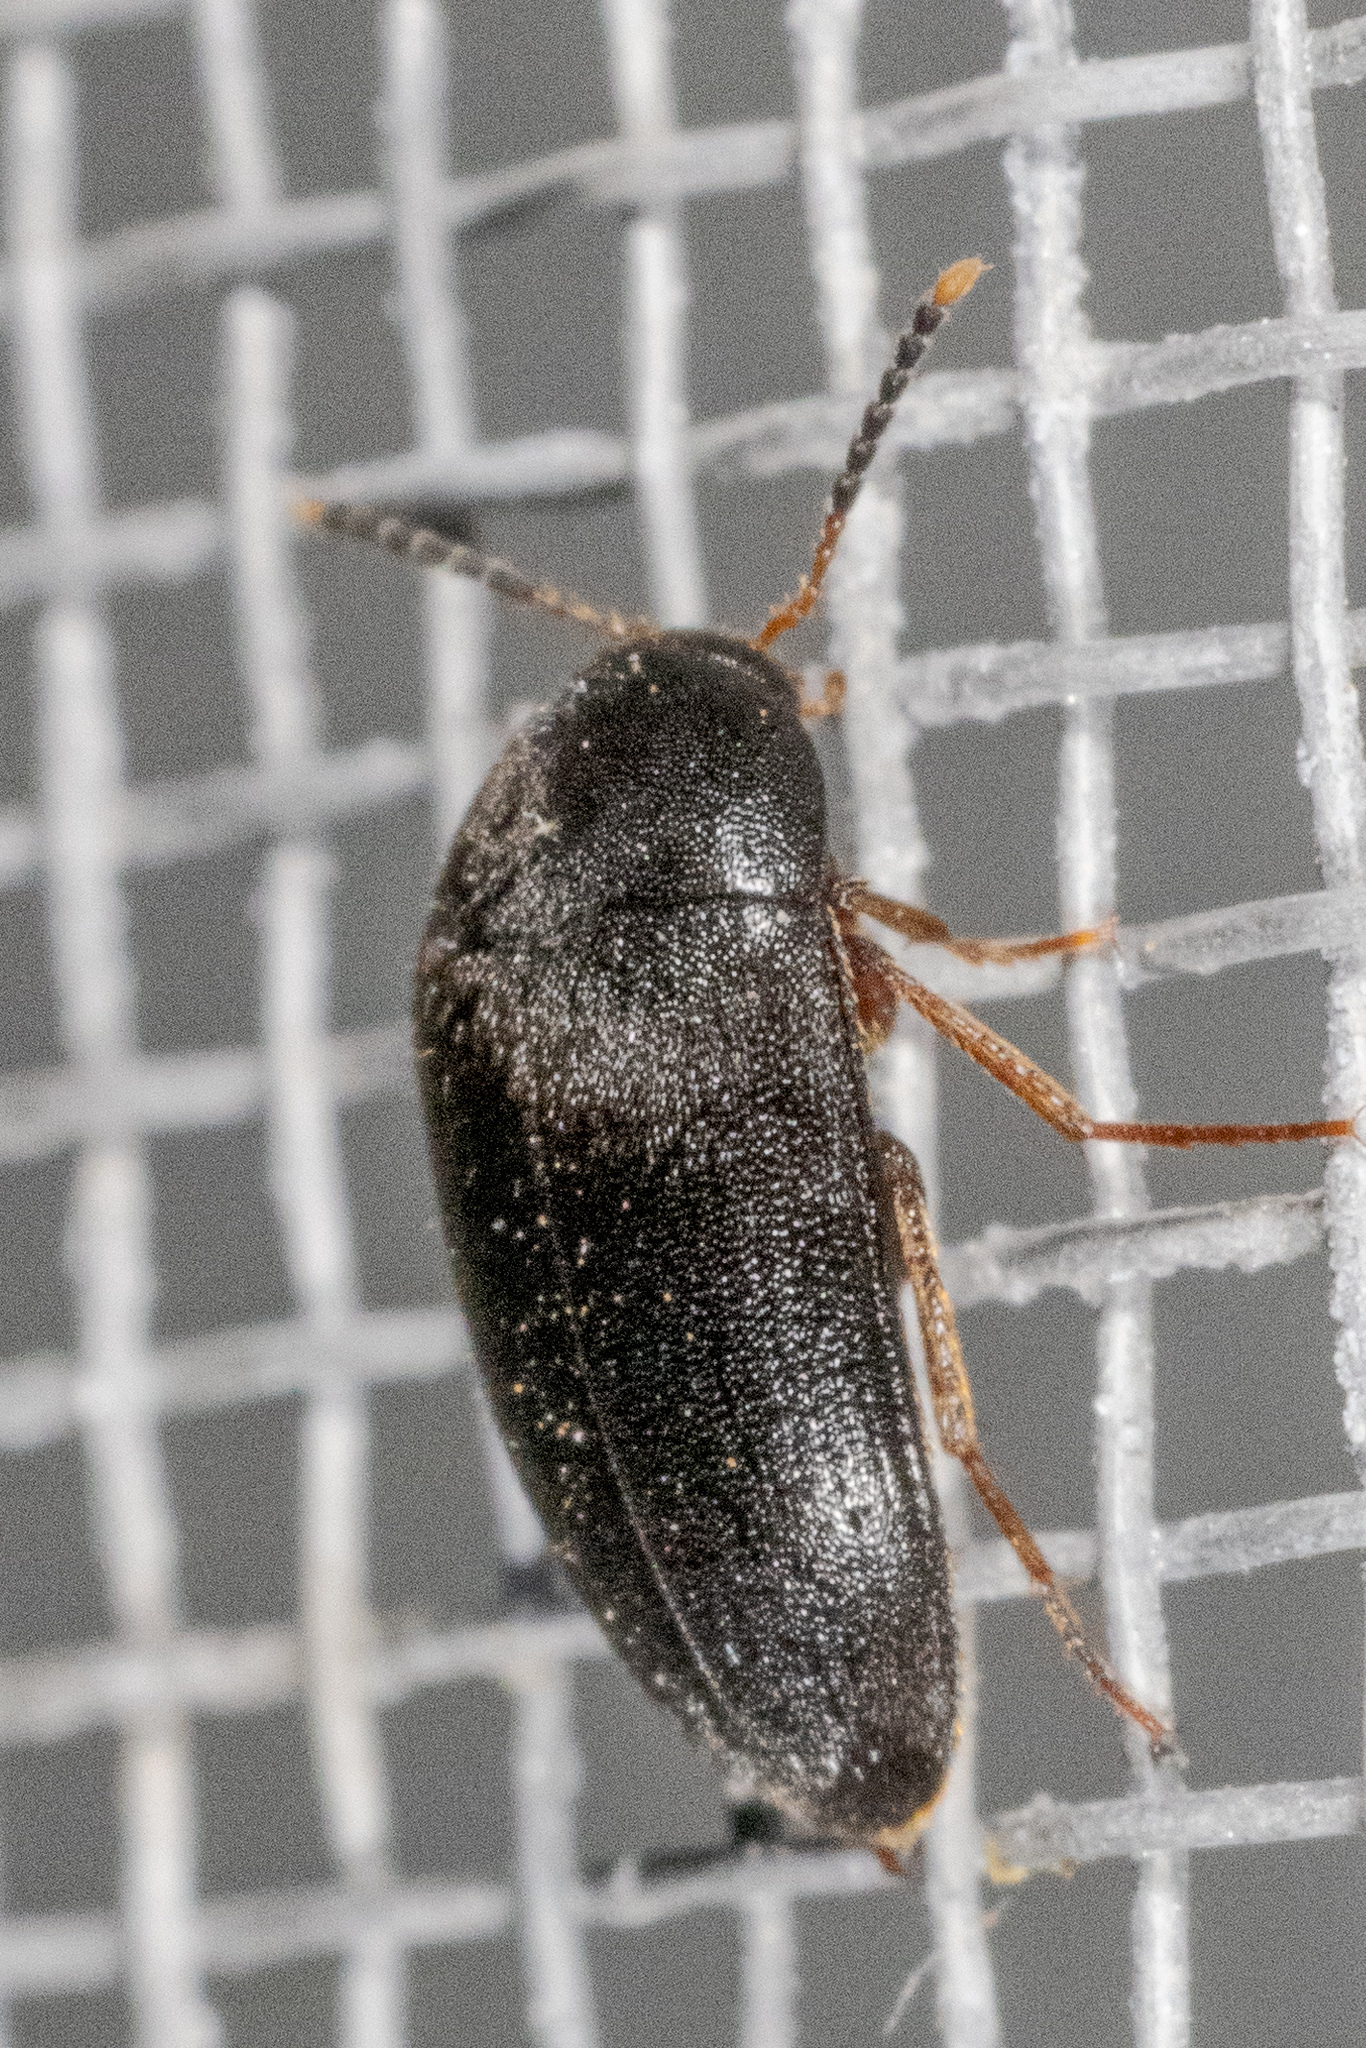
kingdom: Animalia
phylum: Arthropoda
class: Insecta
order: Coleoptera
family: Tetratomidae
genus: Eustrophopsis
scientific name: Eustrophopsis bicolor
